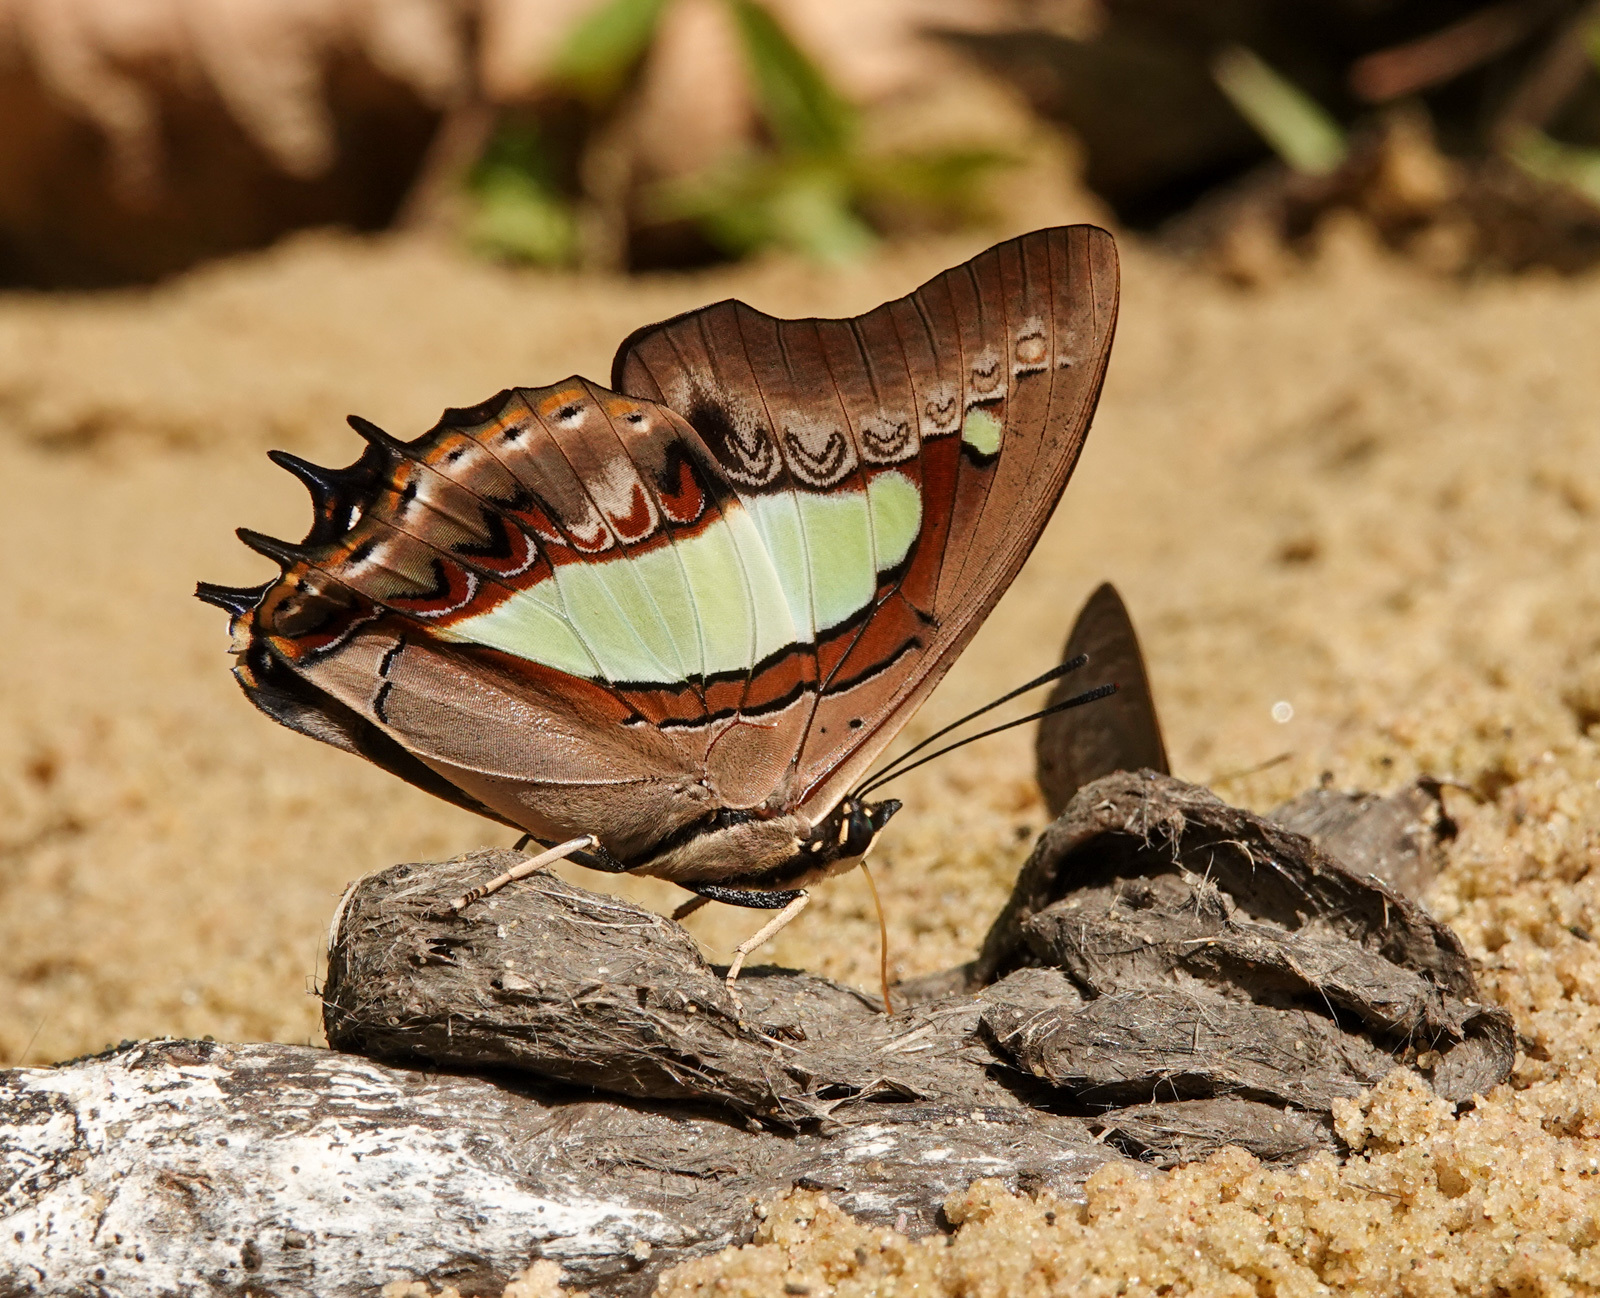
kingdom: Animalia
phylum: Arthropoda
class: Insecta
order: Lepidoptera
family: Nymphalidae
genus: Polyura
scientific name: Polyura athamas
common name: Common nawab
